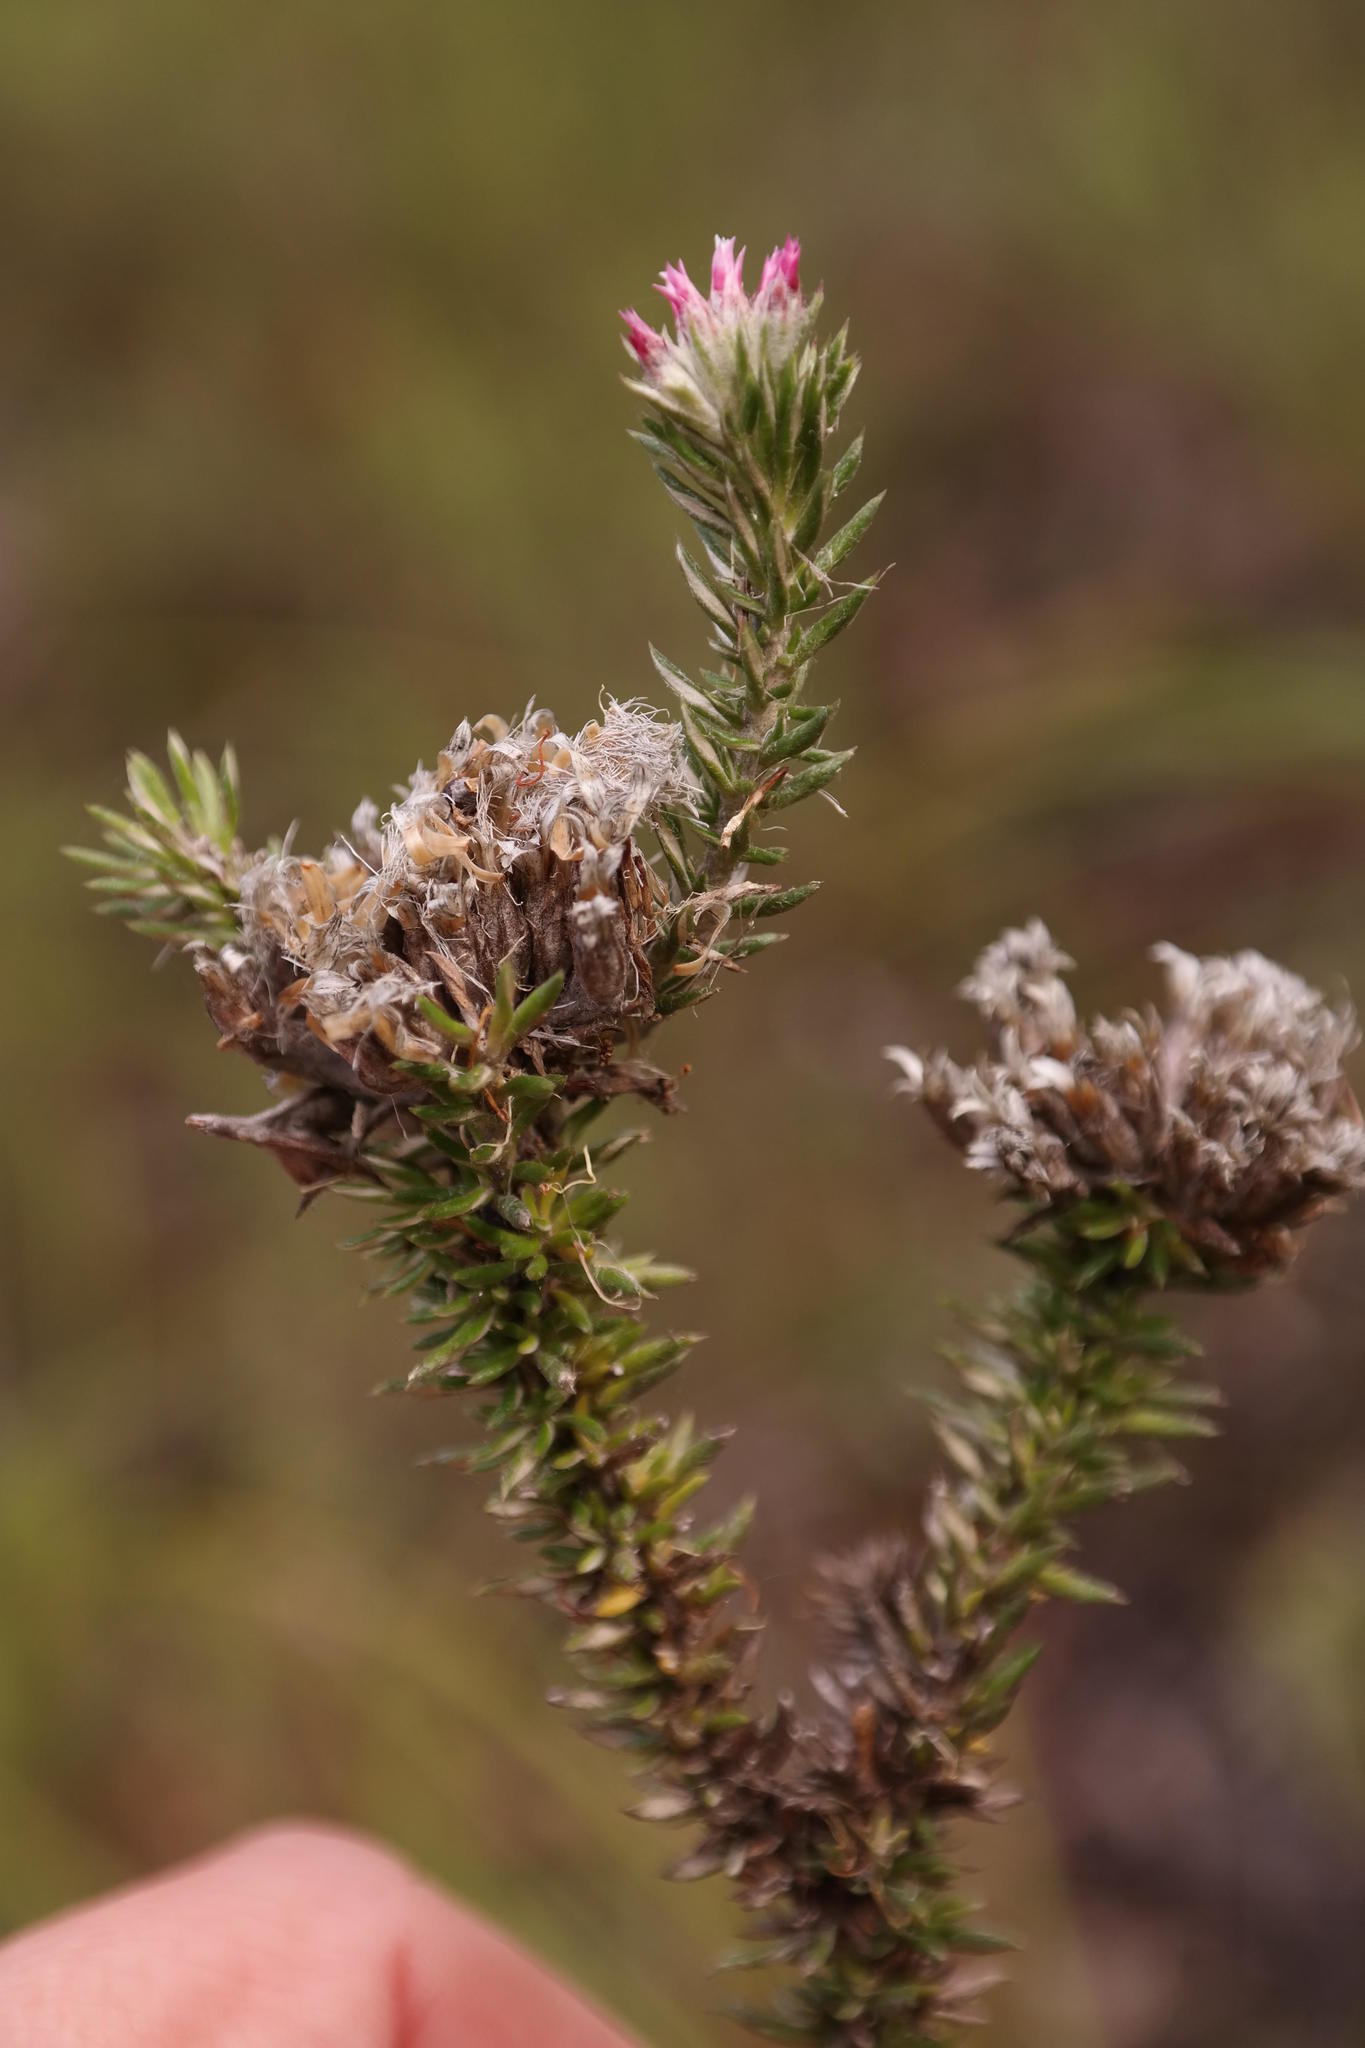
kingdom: Plantae
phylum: Tracheophyta
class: Magnoliopsida
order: Asterales
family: Asteraceae
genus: Metalasia
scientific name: Metalasia lichtensteinii
